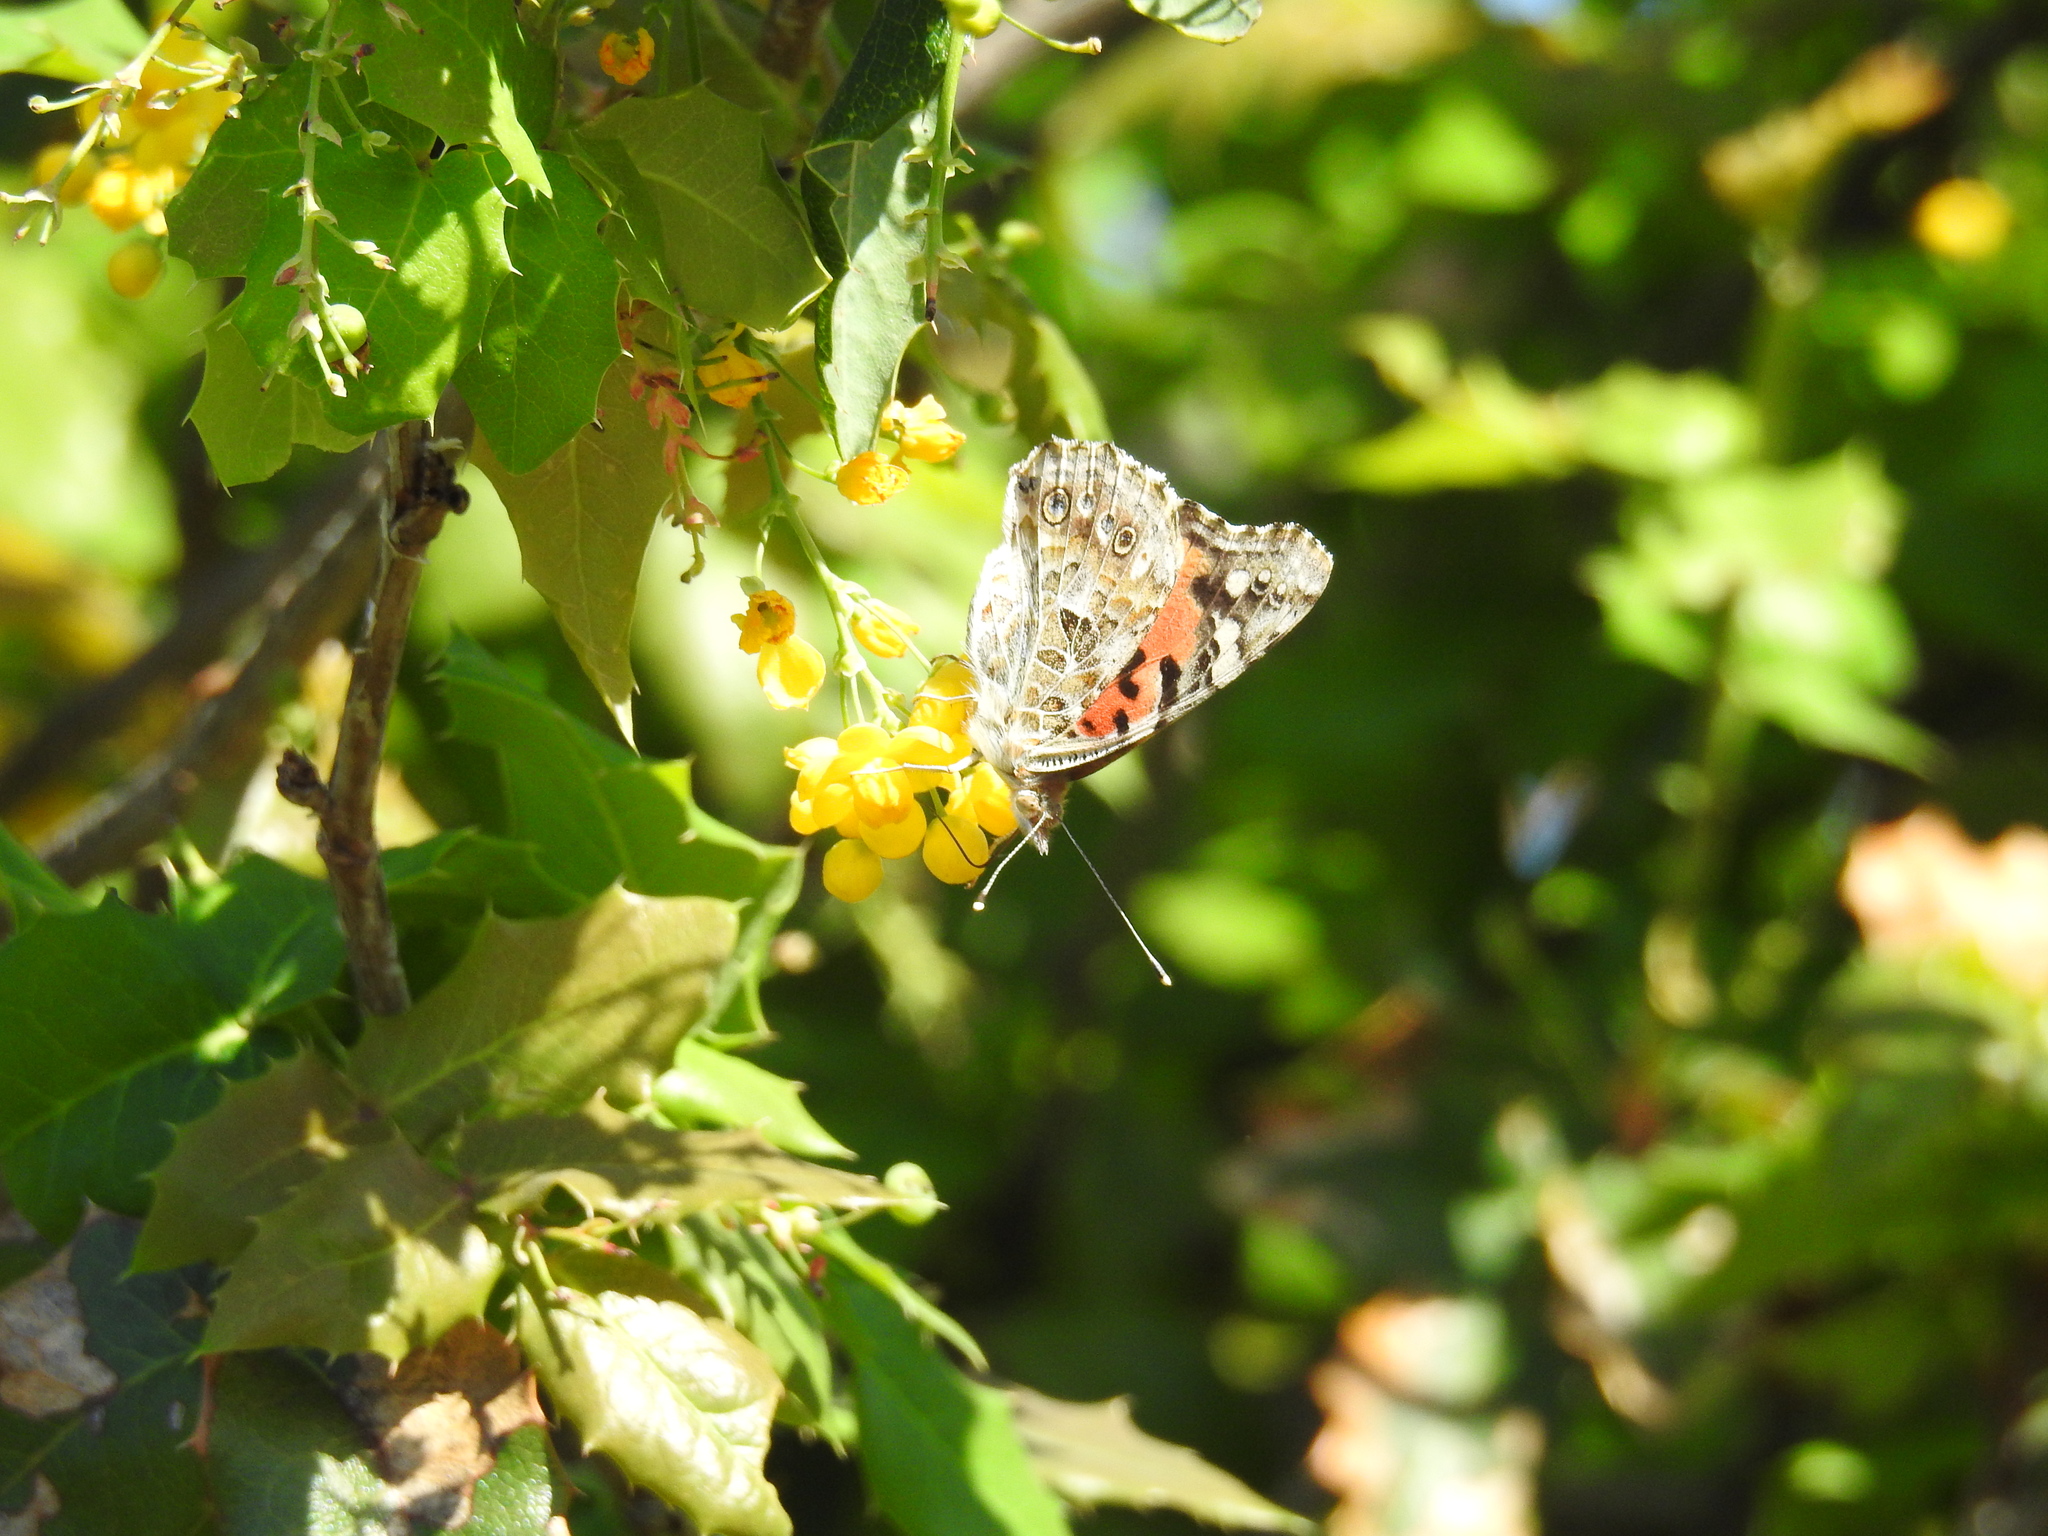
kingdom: Animalia
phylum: Arthropoda
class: Insecta
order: Lepidoptera
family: Nymphalidae
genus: Vanessa
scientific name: Vanessa cardui
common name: Painted lady
